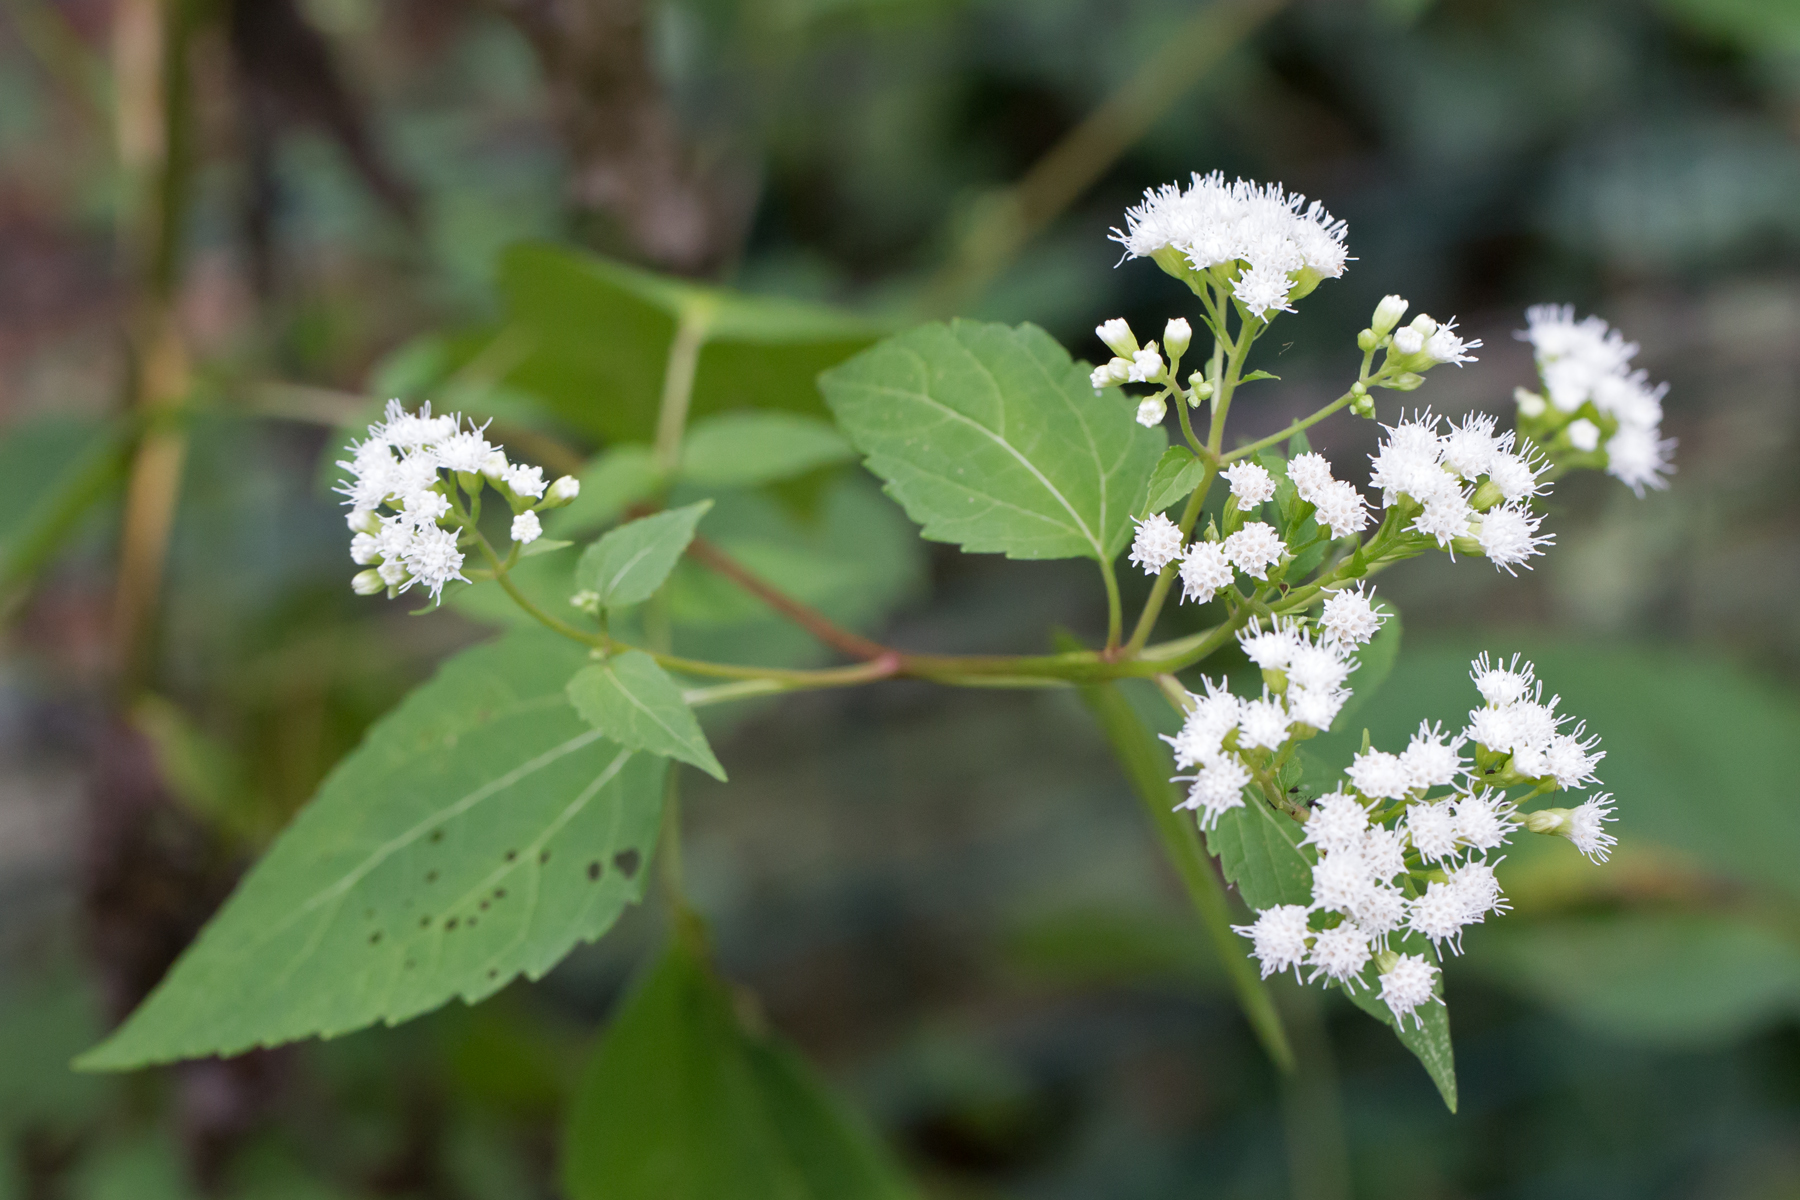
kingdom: Plantae
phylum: Tracheophyta
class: Magnoliopsida
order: Asterales
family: Asteraceae
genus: Ageratina
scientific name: Ageratina altissima
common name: White snakeroot
